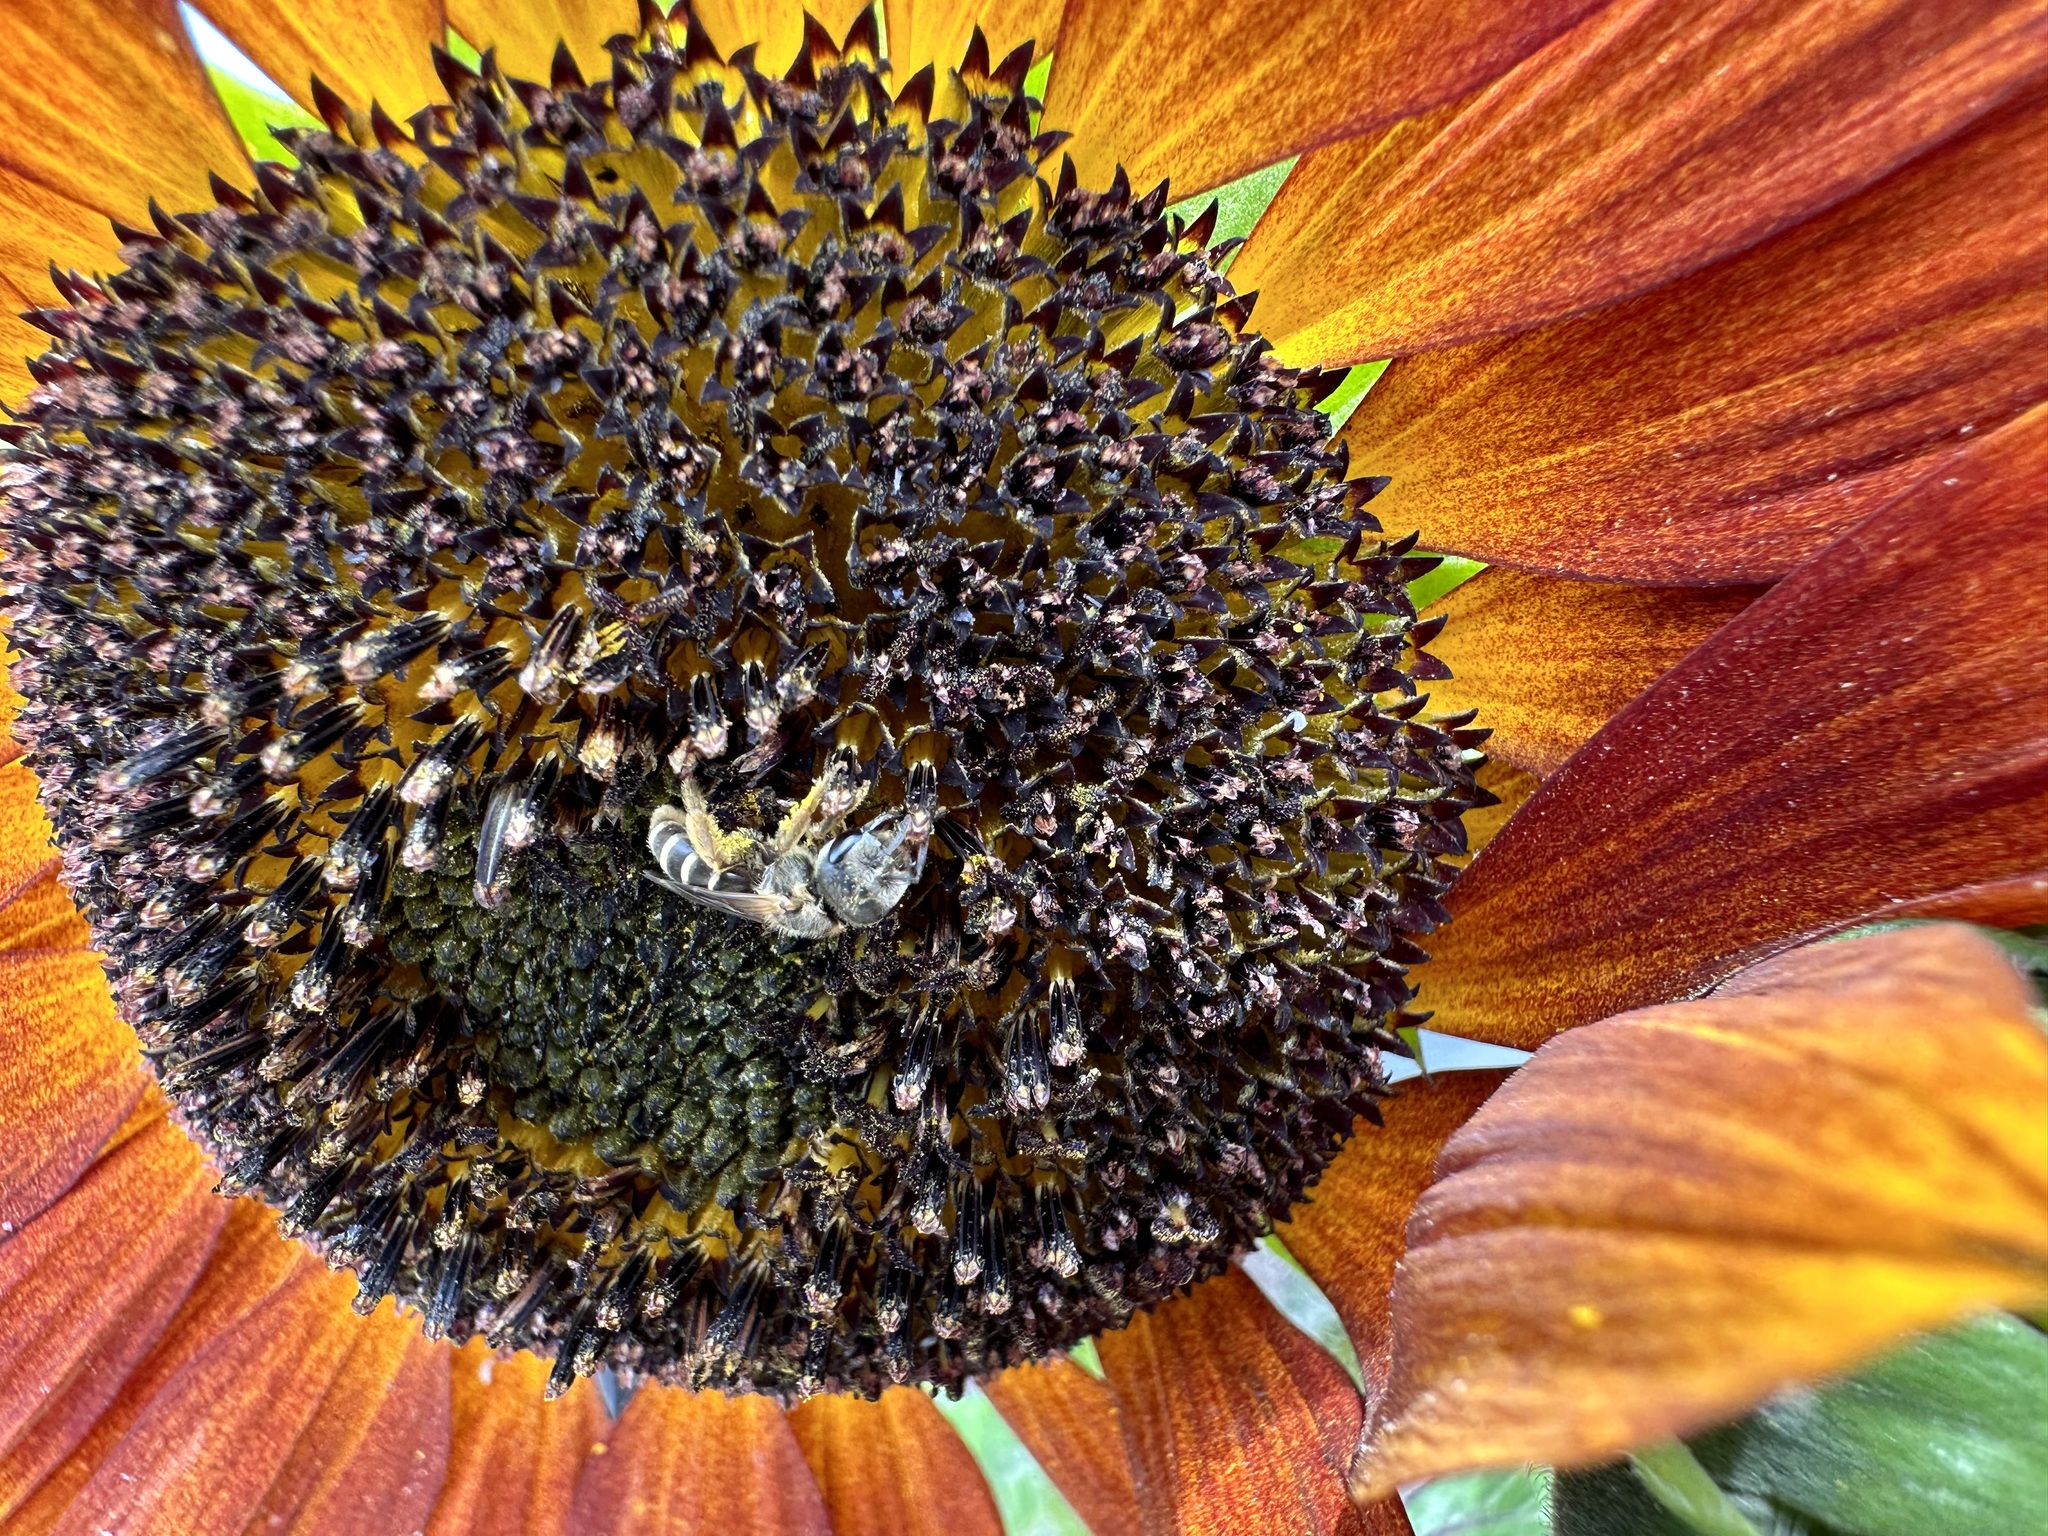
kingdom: Animalia
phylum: Arthropoda
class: Insecta
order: Hymenoptera
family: Halictidae
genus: Halictus
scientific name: Halictus ligatus
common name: Ligated furrow bee
